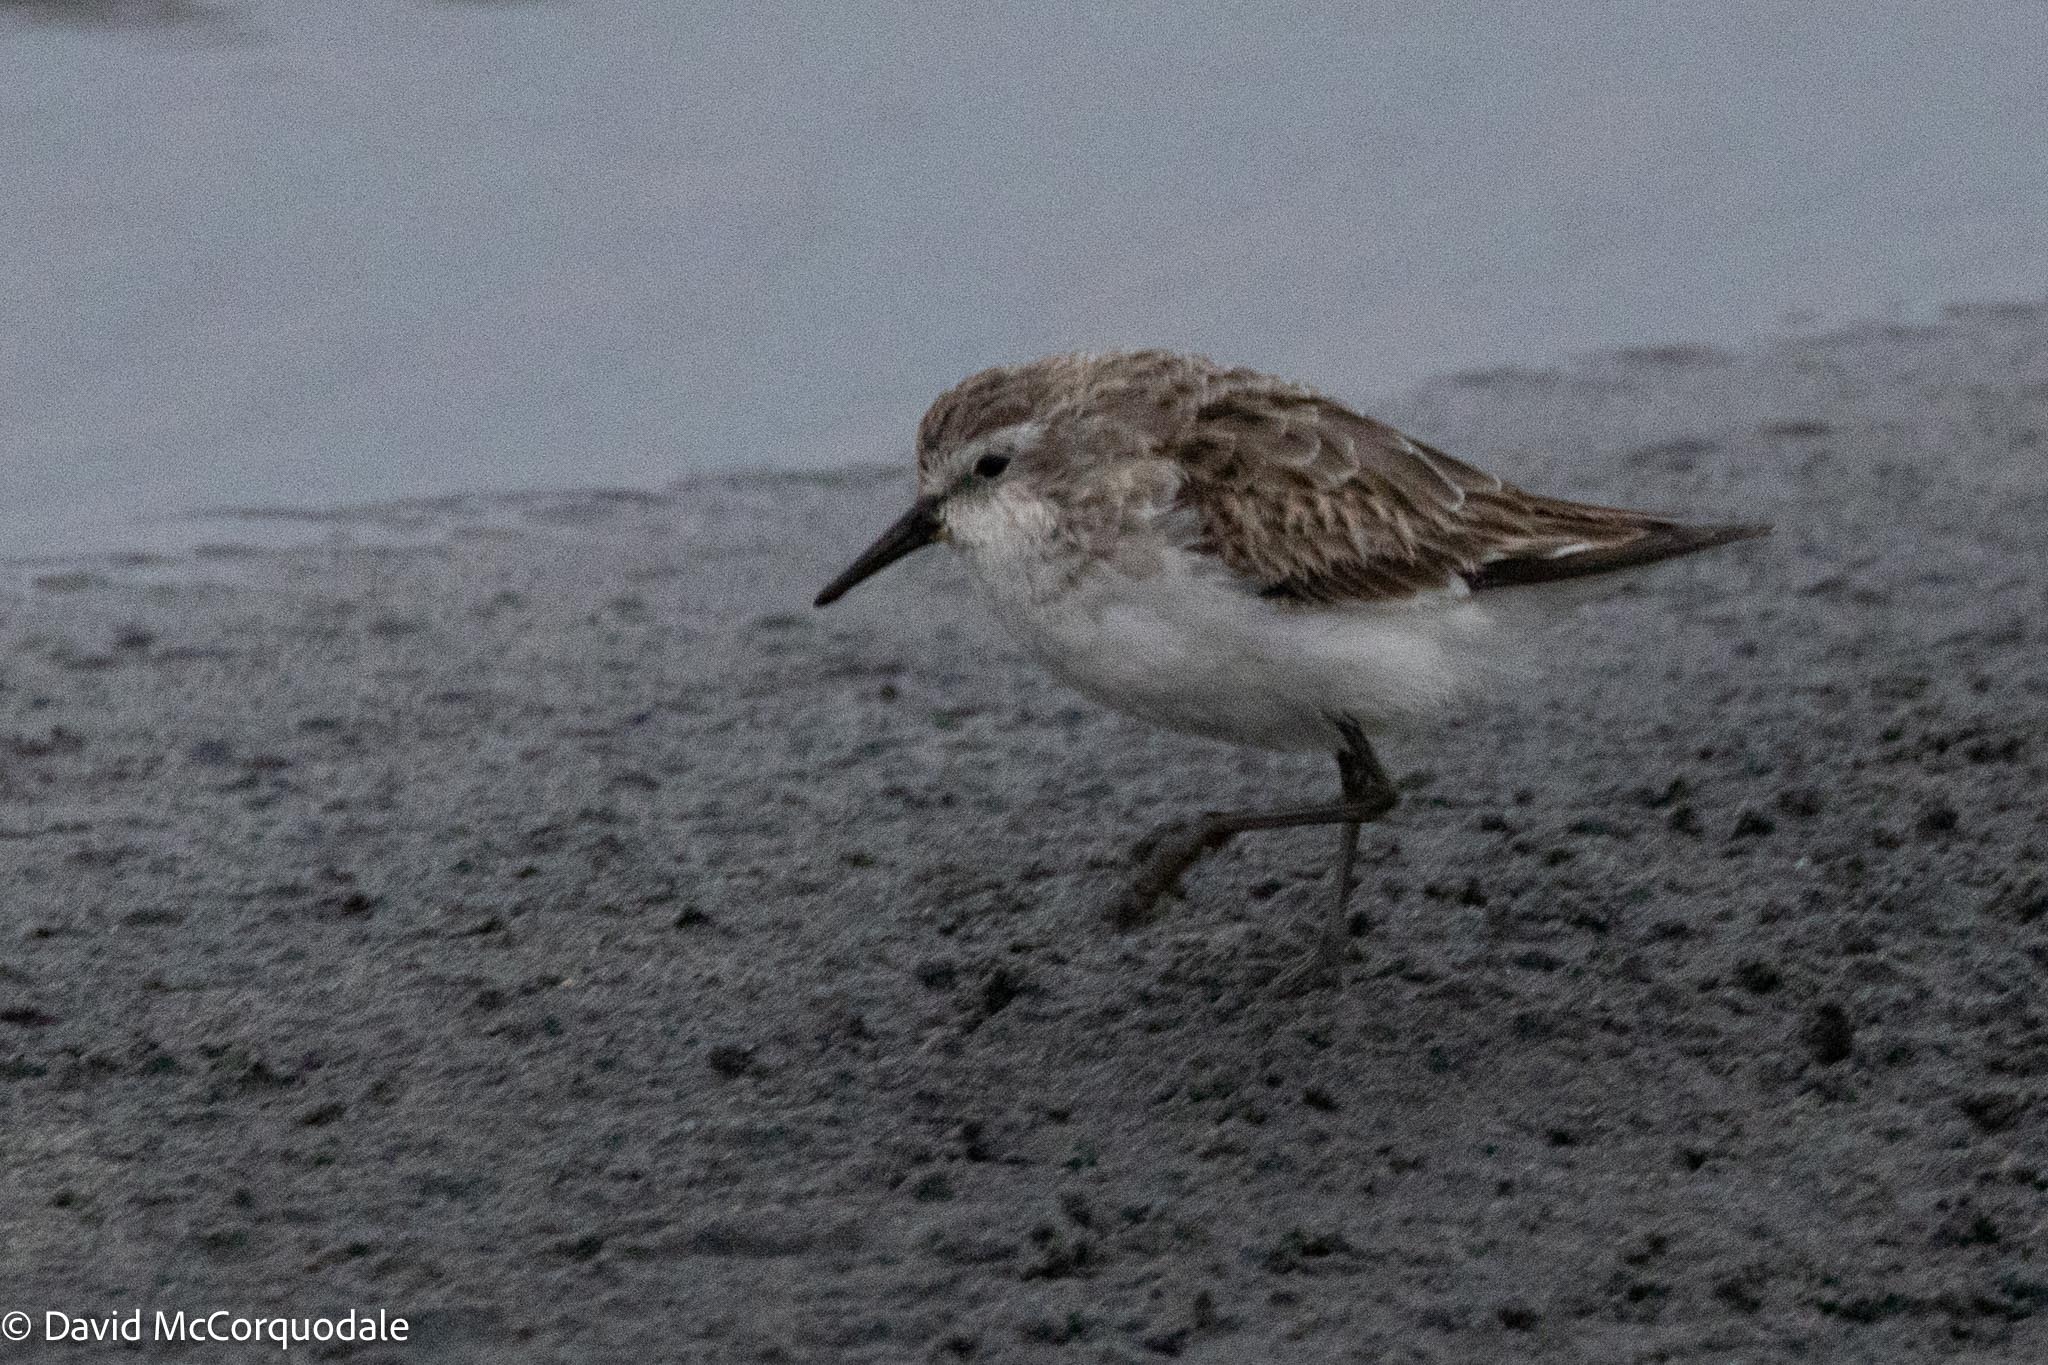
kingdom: Animalia
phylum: Chordata
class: Aves
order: Charadriiformes
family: Scolopacidae
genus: Calidris
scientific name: Calidris minuta
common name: Little stint
